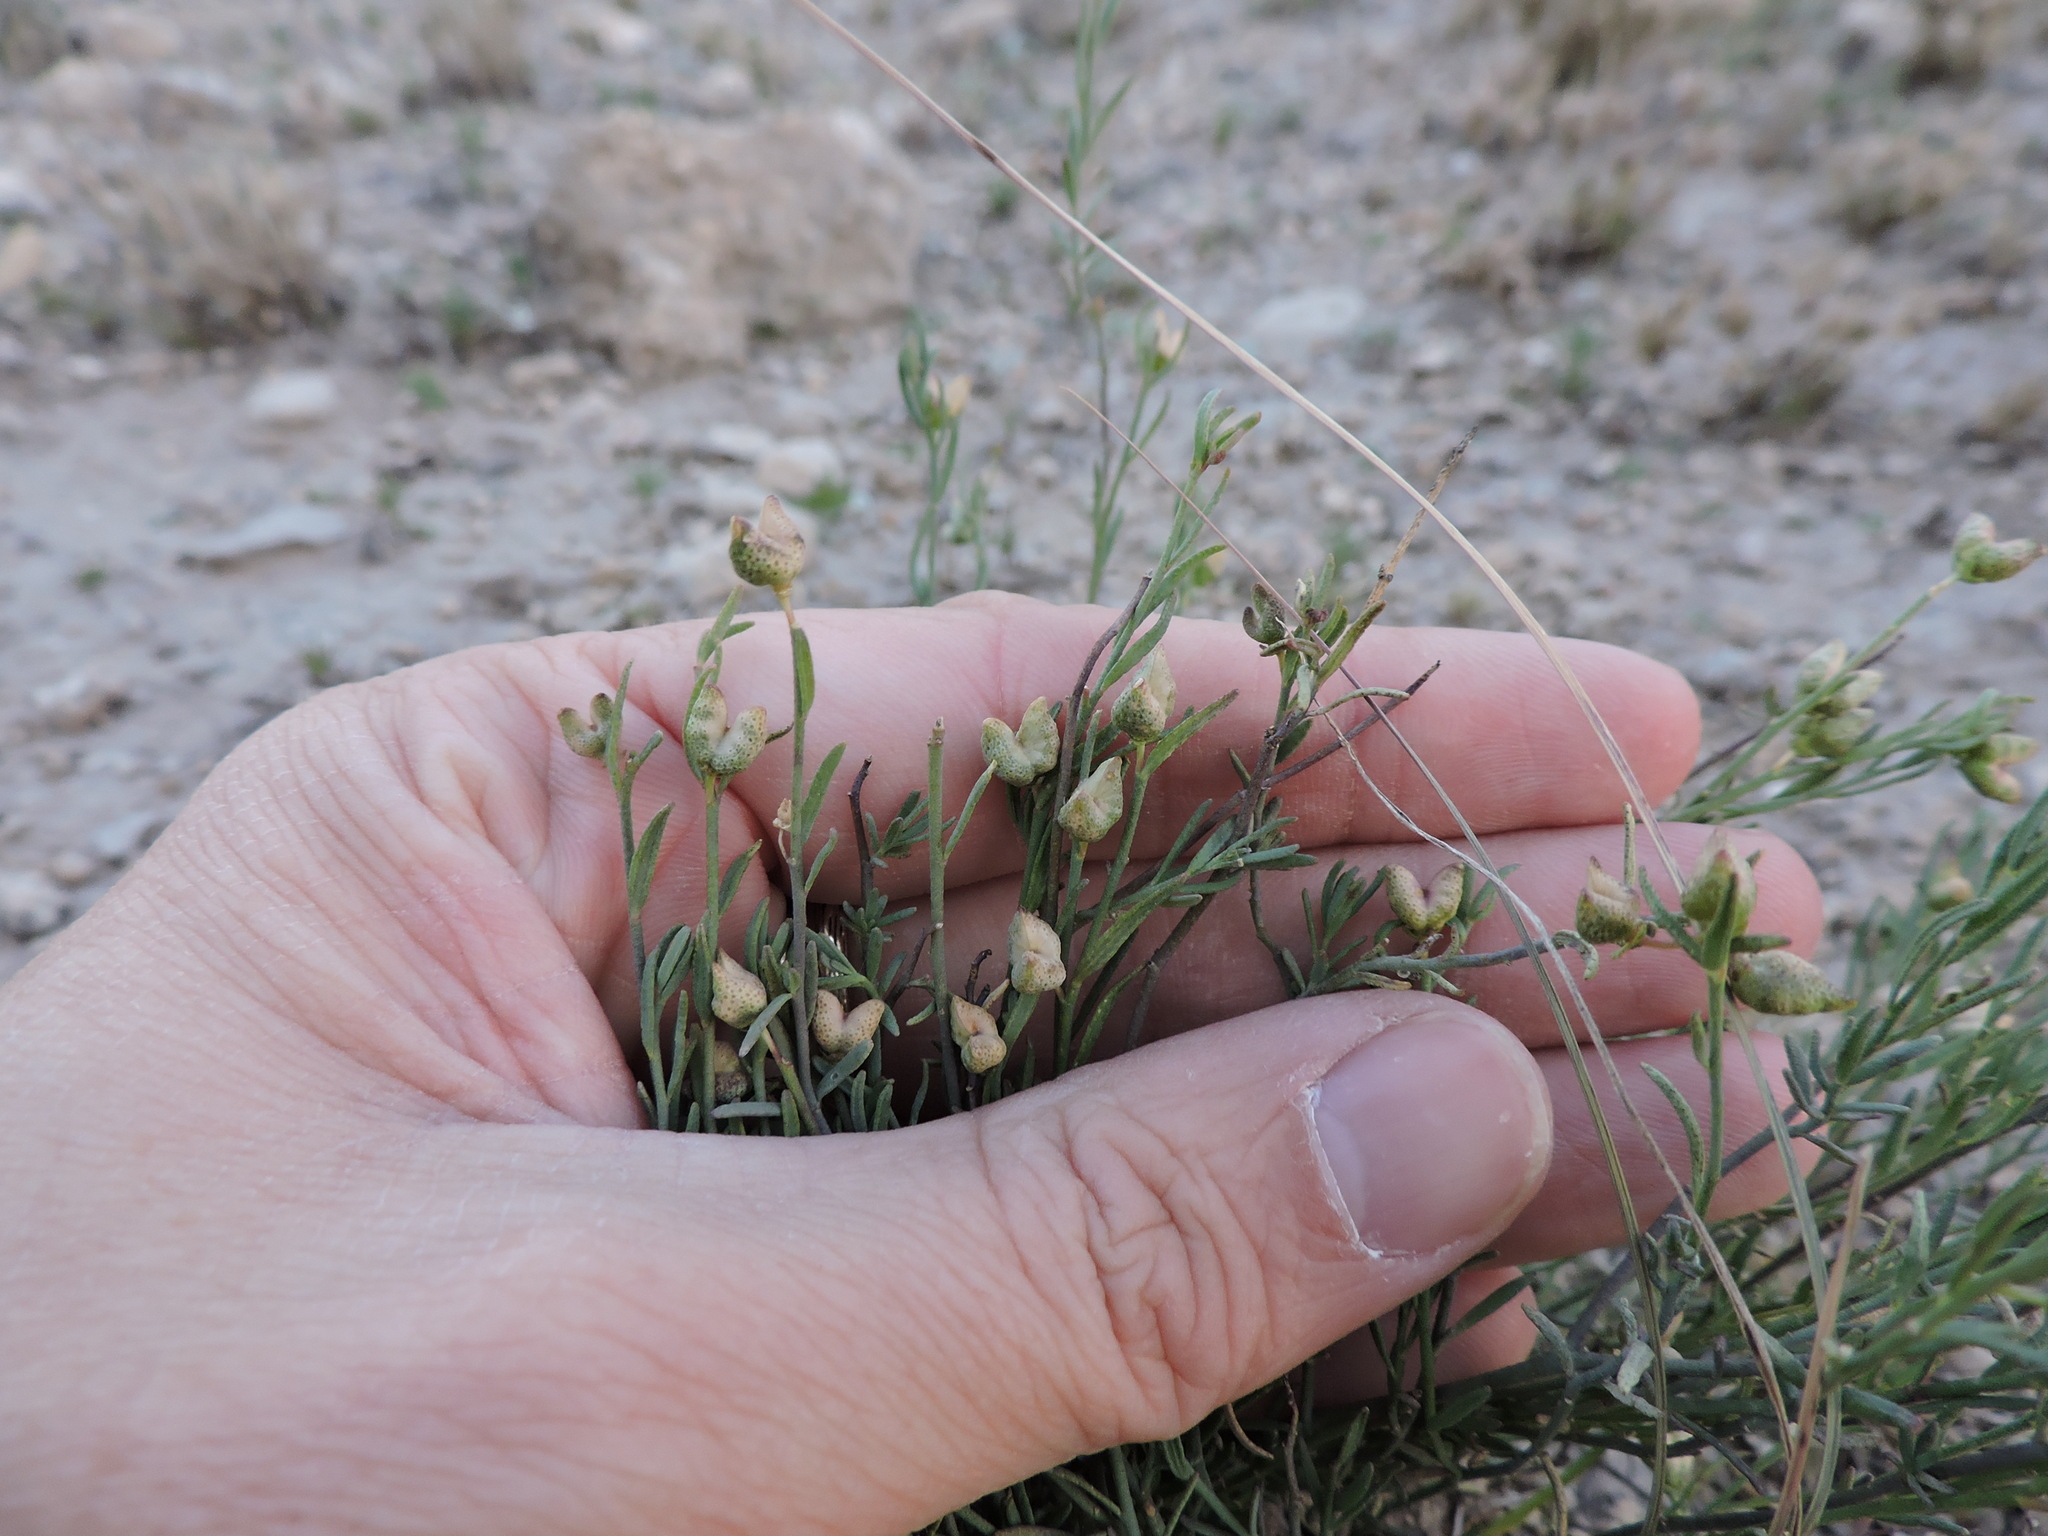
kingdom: Plantae
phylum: Tracheophyta
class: Magnoliopsida
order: Sapindales
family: Rutaceae
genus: Thamnosma
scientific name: Thamnosma texana
